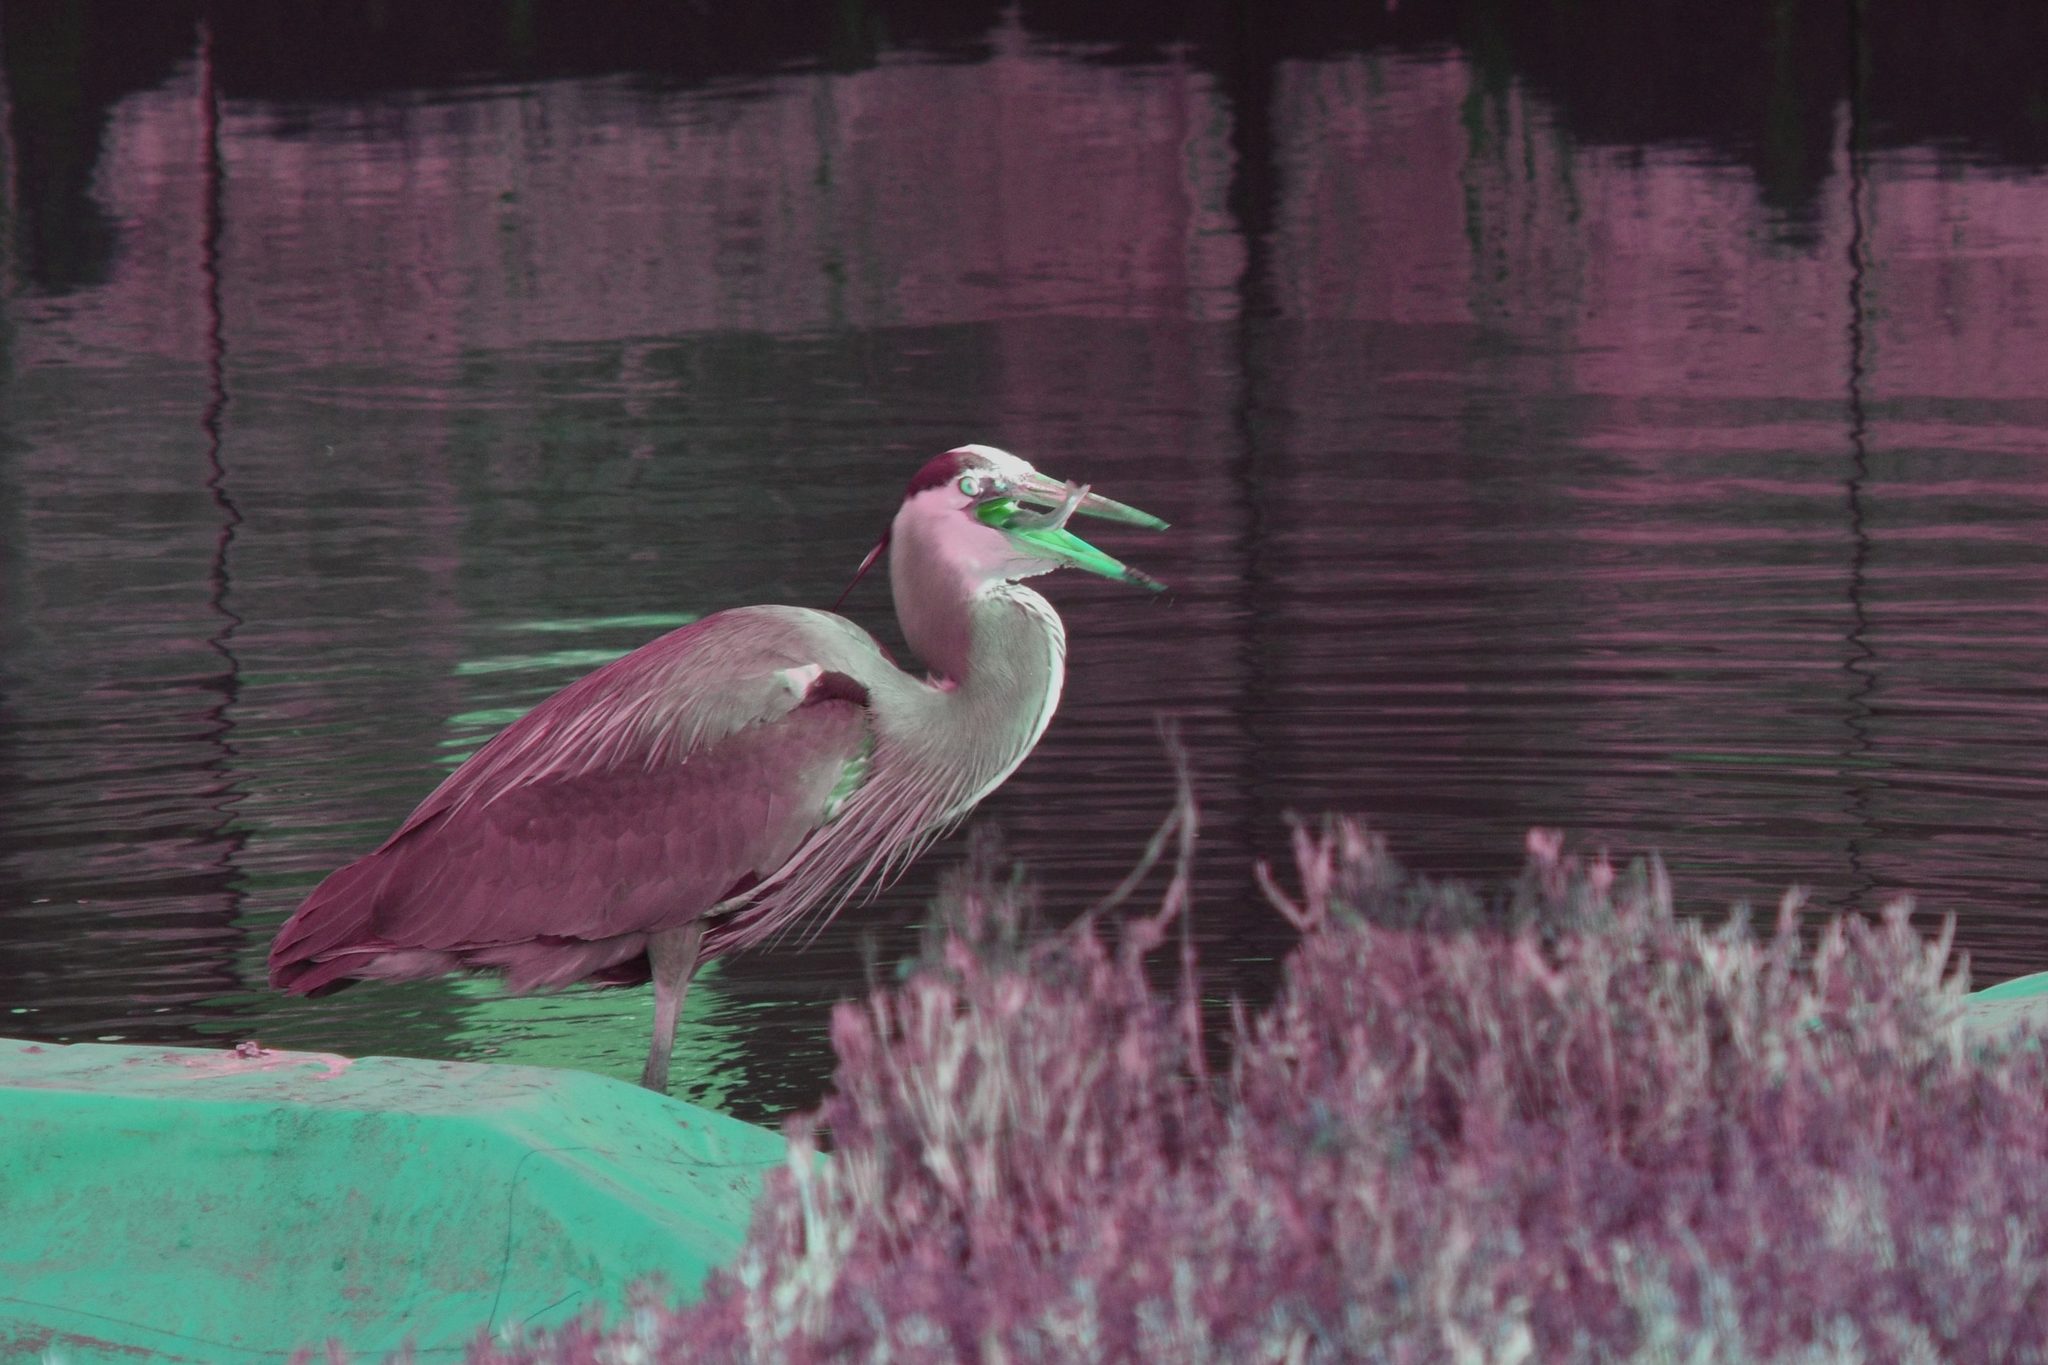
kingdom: Animalia
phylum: Chordata
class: Aves
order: Pelecaniformes
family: Ardeidae
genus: Ardea
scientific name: Ardea herodias
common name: Great blue heron
